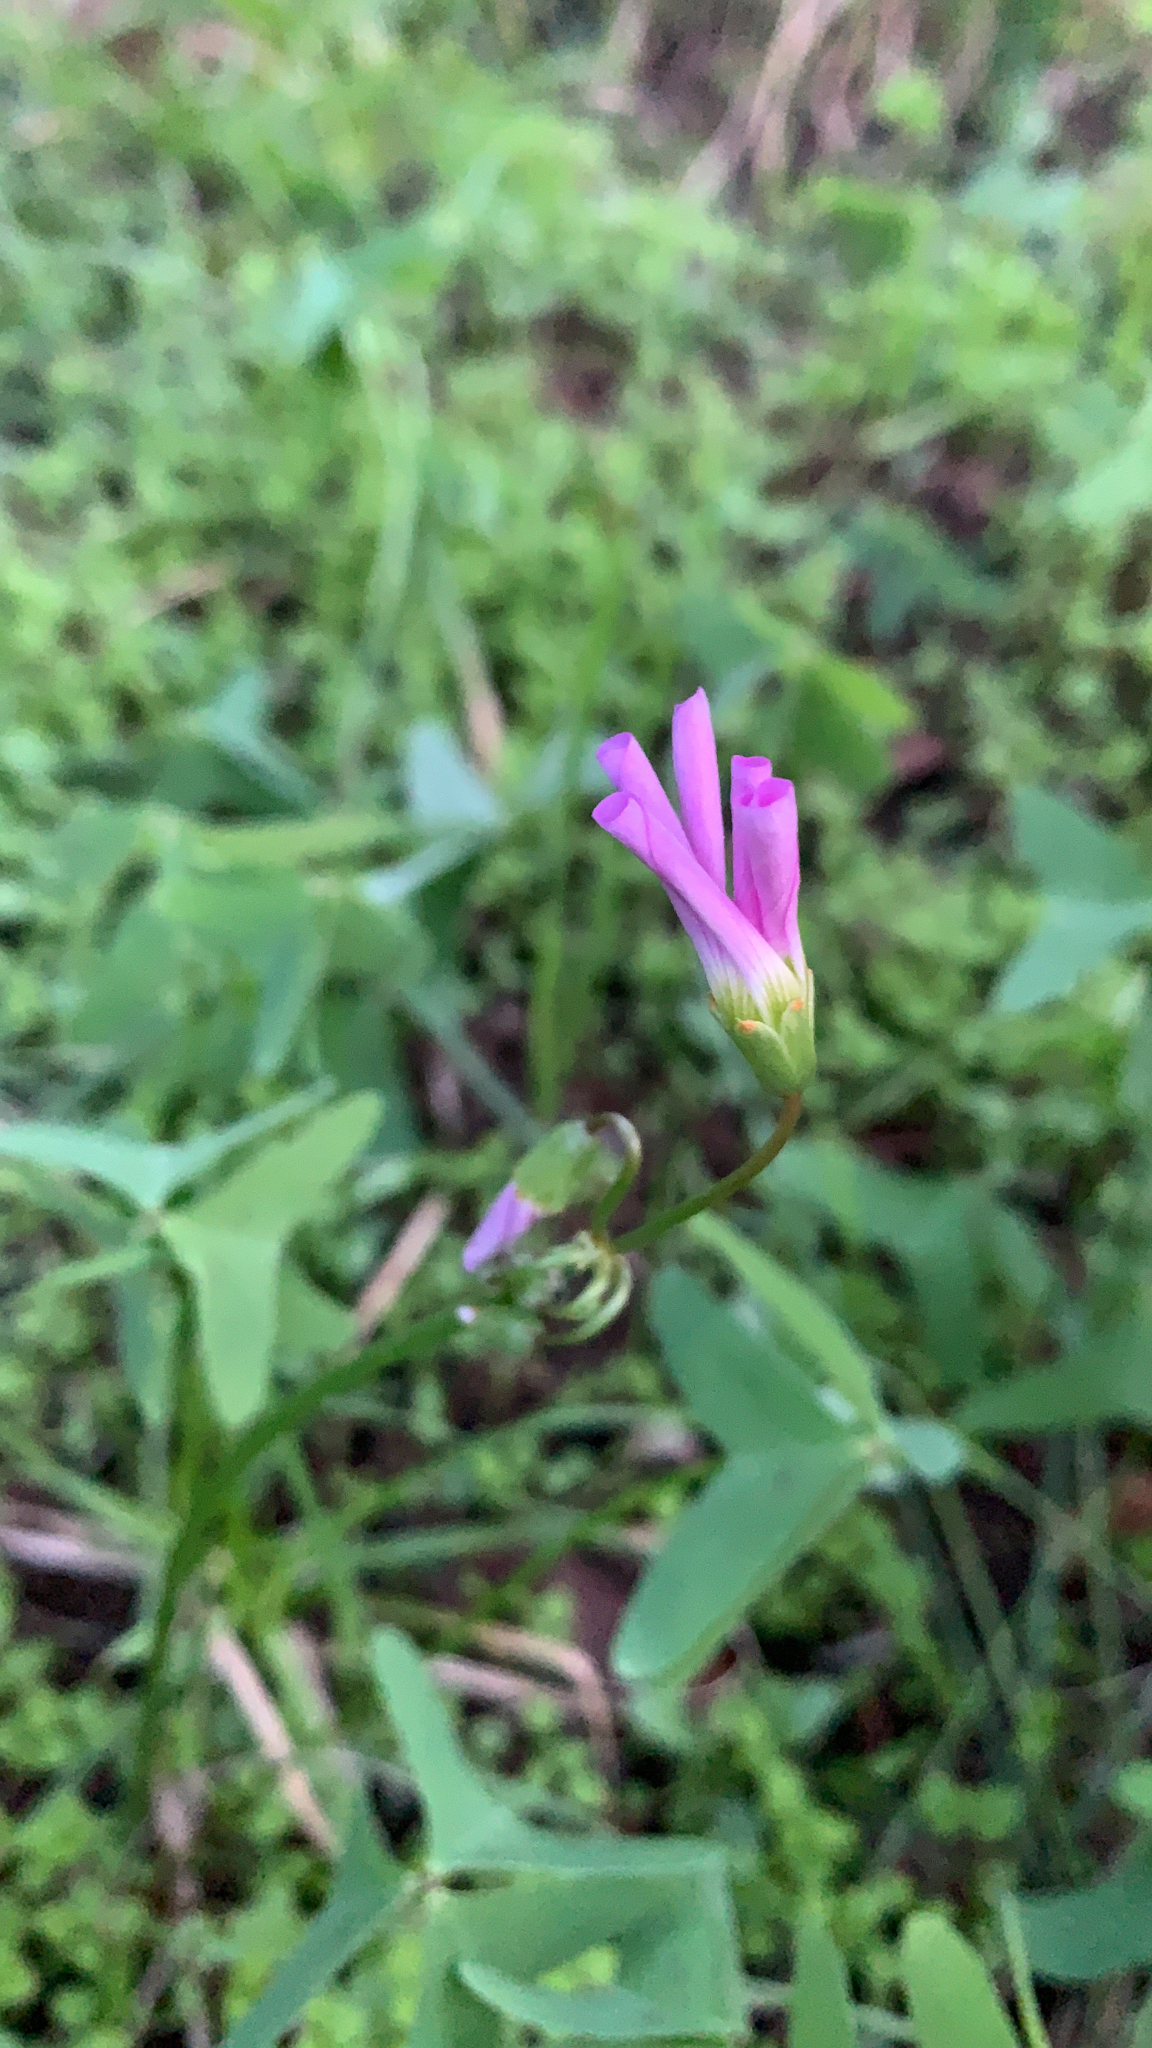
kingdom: Plantae
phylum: Tracheophyta
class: Magnoliopsida
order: Oxalidales
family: Oxalidaceae
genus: Oxalis
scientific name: Oxalis drummondii
